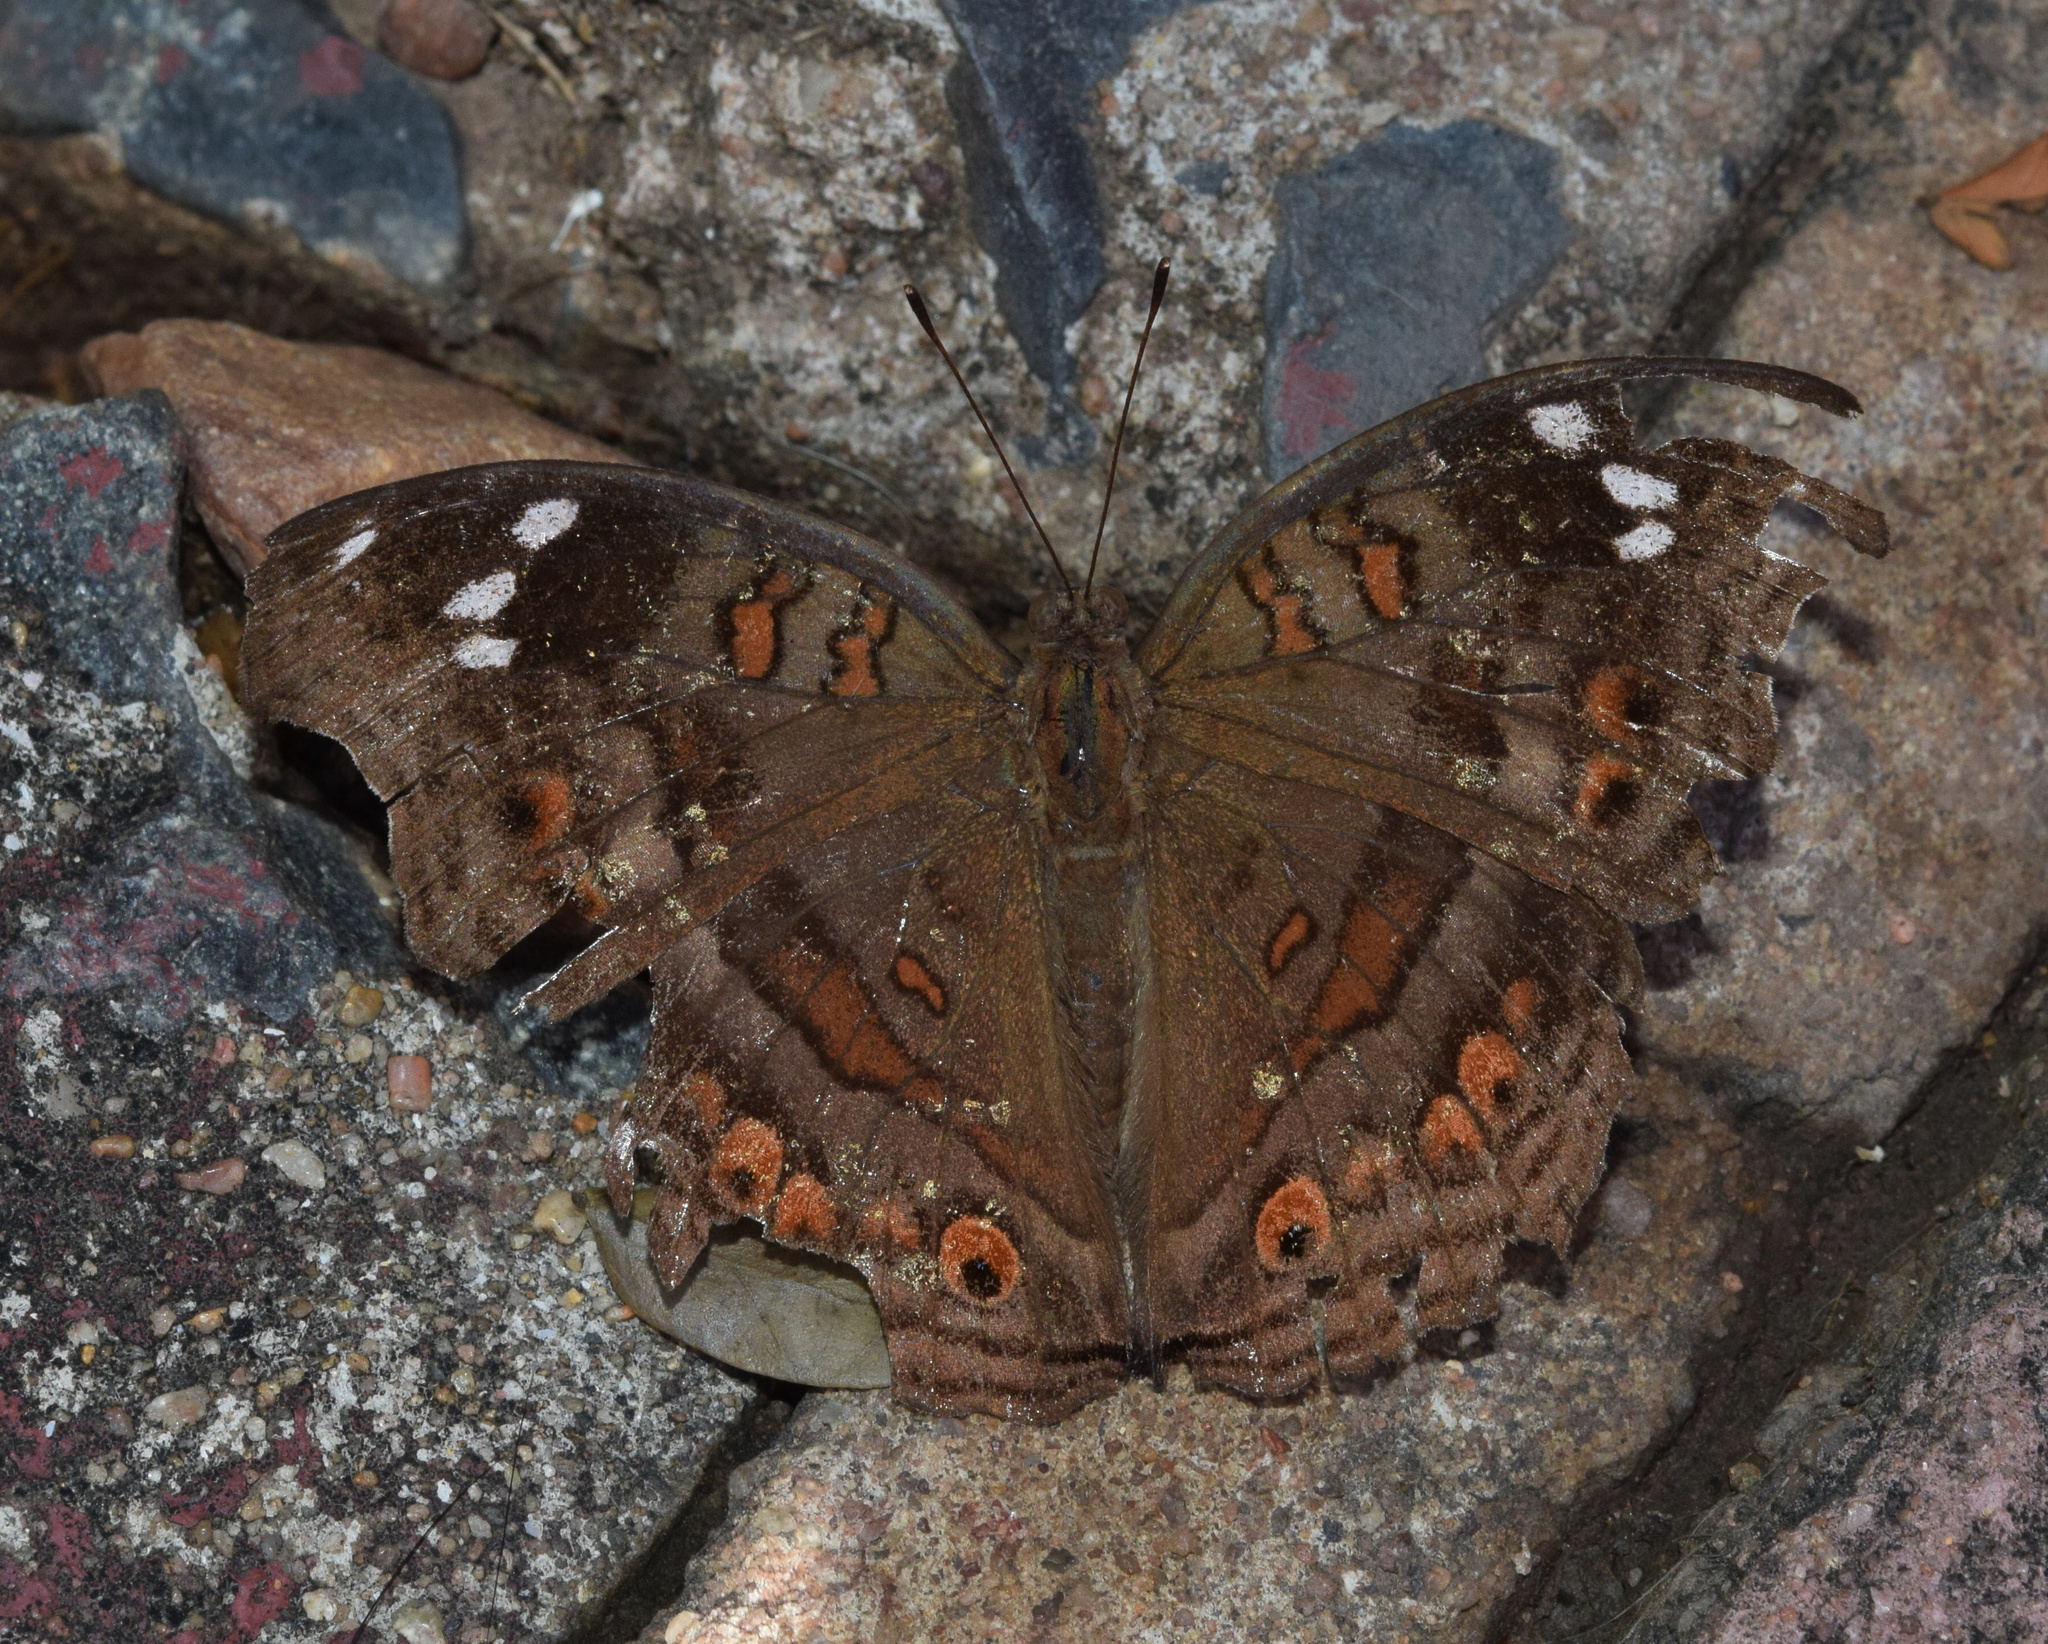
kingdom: Animalia
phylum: Arthropoda
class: Insecta
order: Lepidoptera
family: Nymphalidae
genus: Junonia
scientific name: Junonia natalica
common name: Brown pansy
